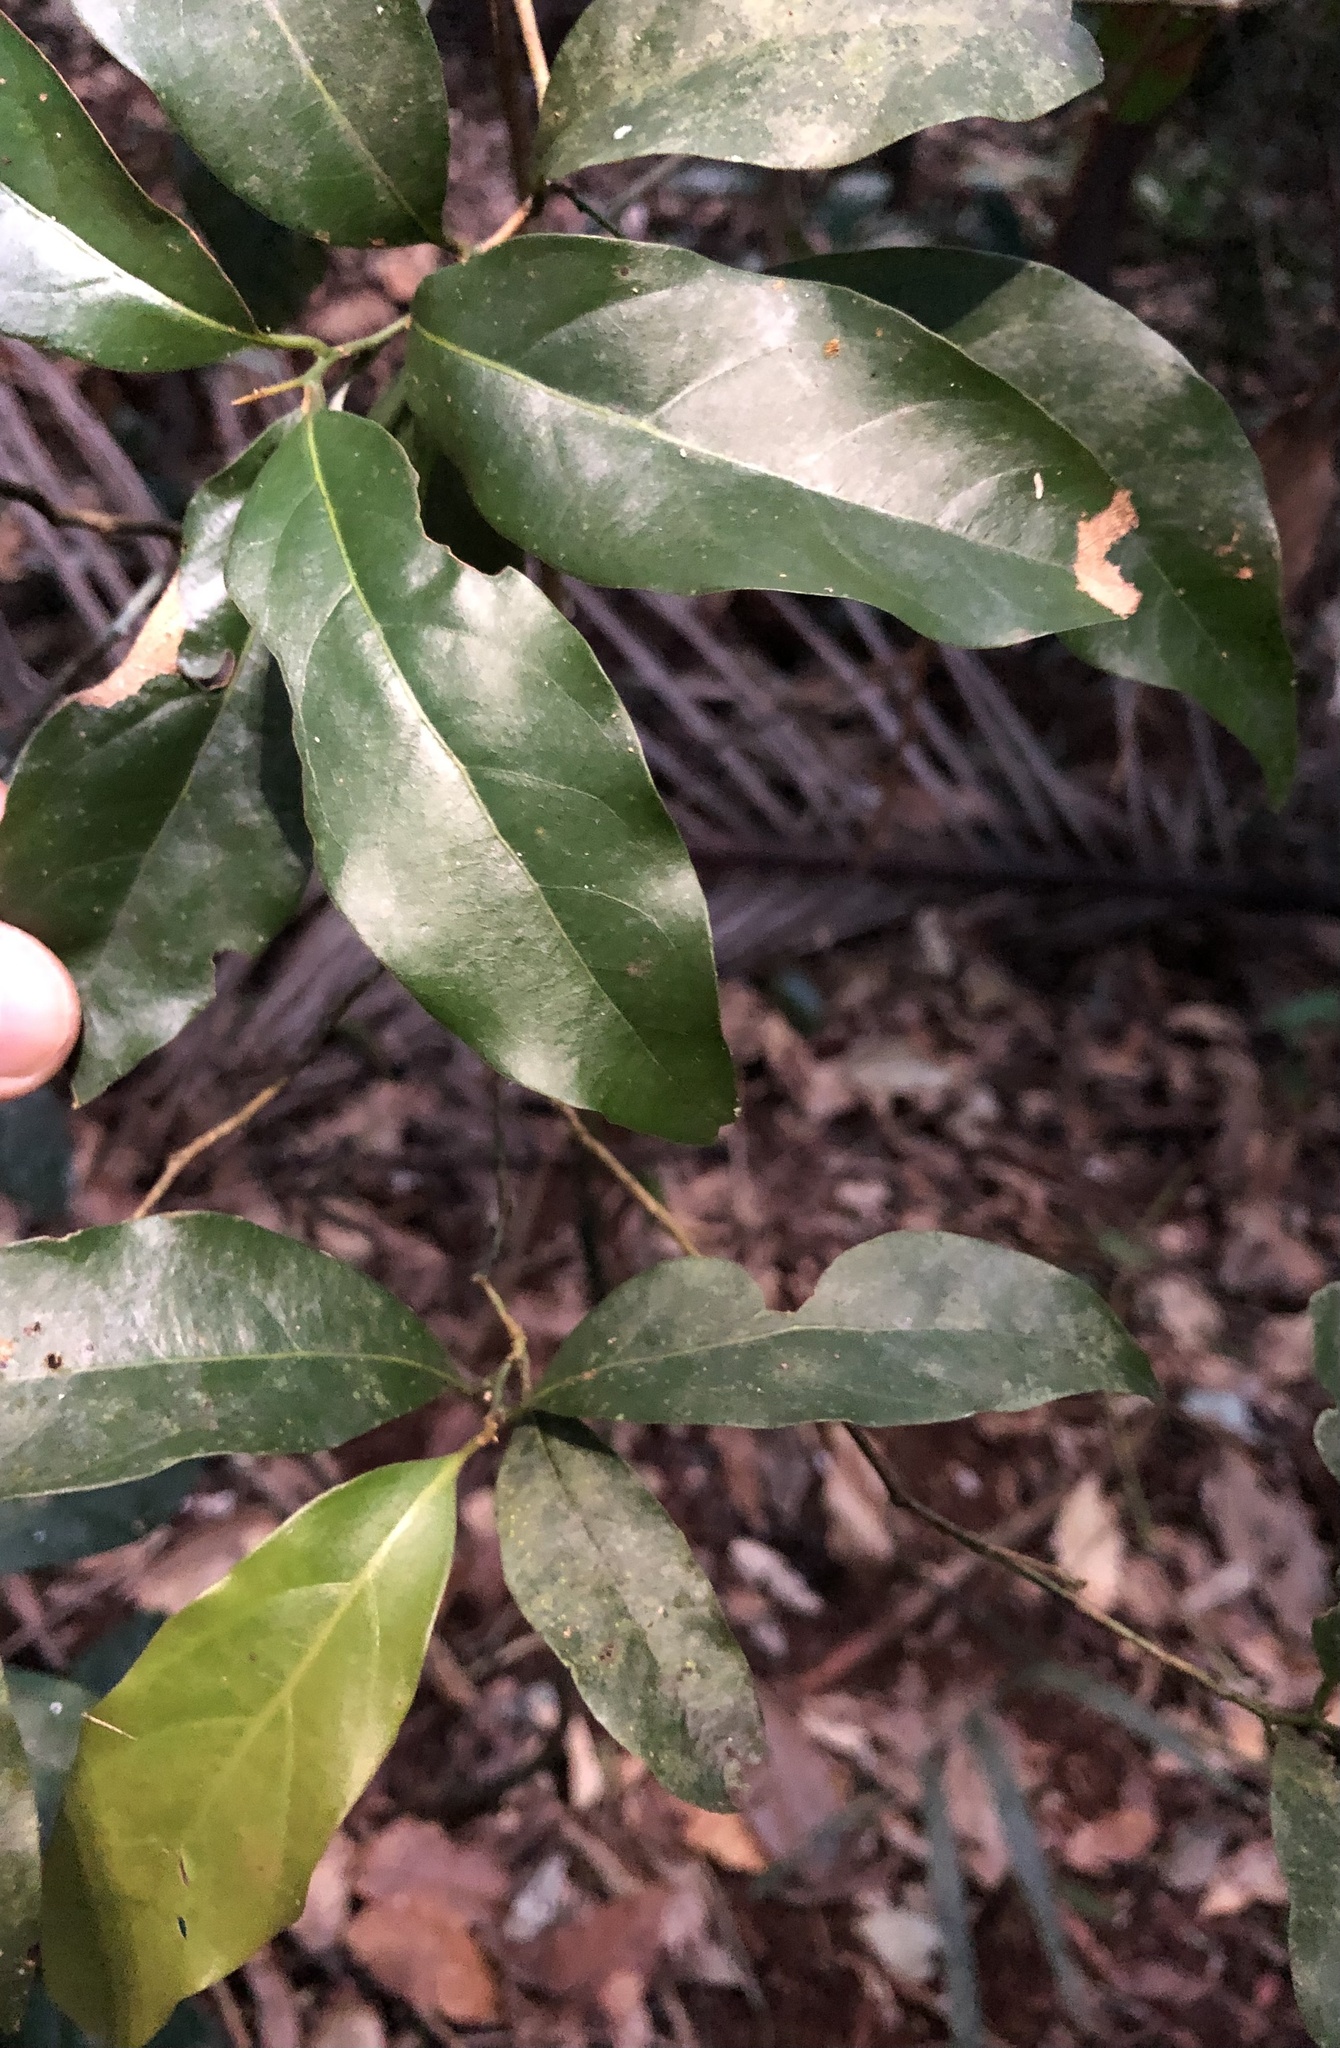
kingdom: Plantae
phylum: Tracheophyta
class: Magnoliopsida
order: Laurales
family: Lauraceae
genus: Endiandra
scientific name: Endiandra muelleri
